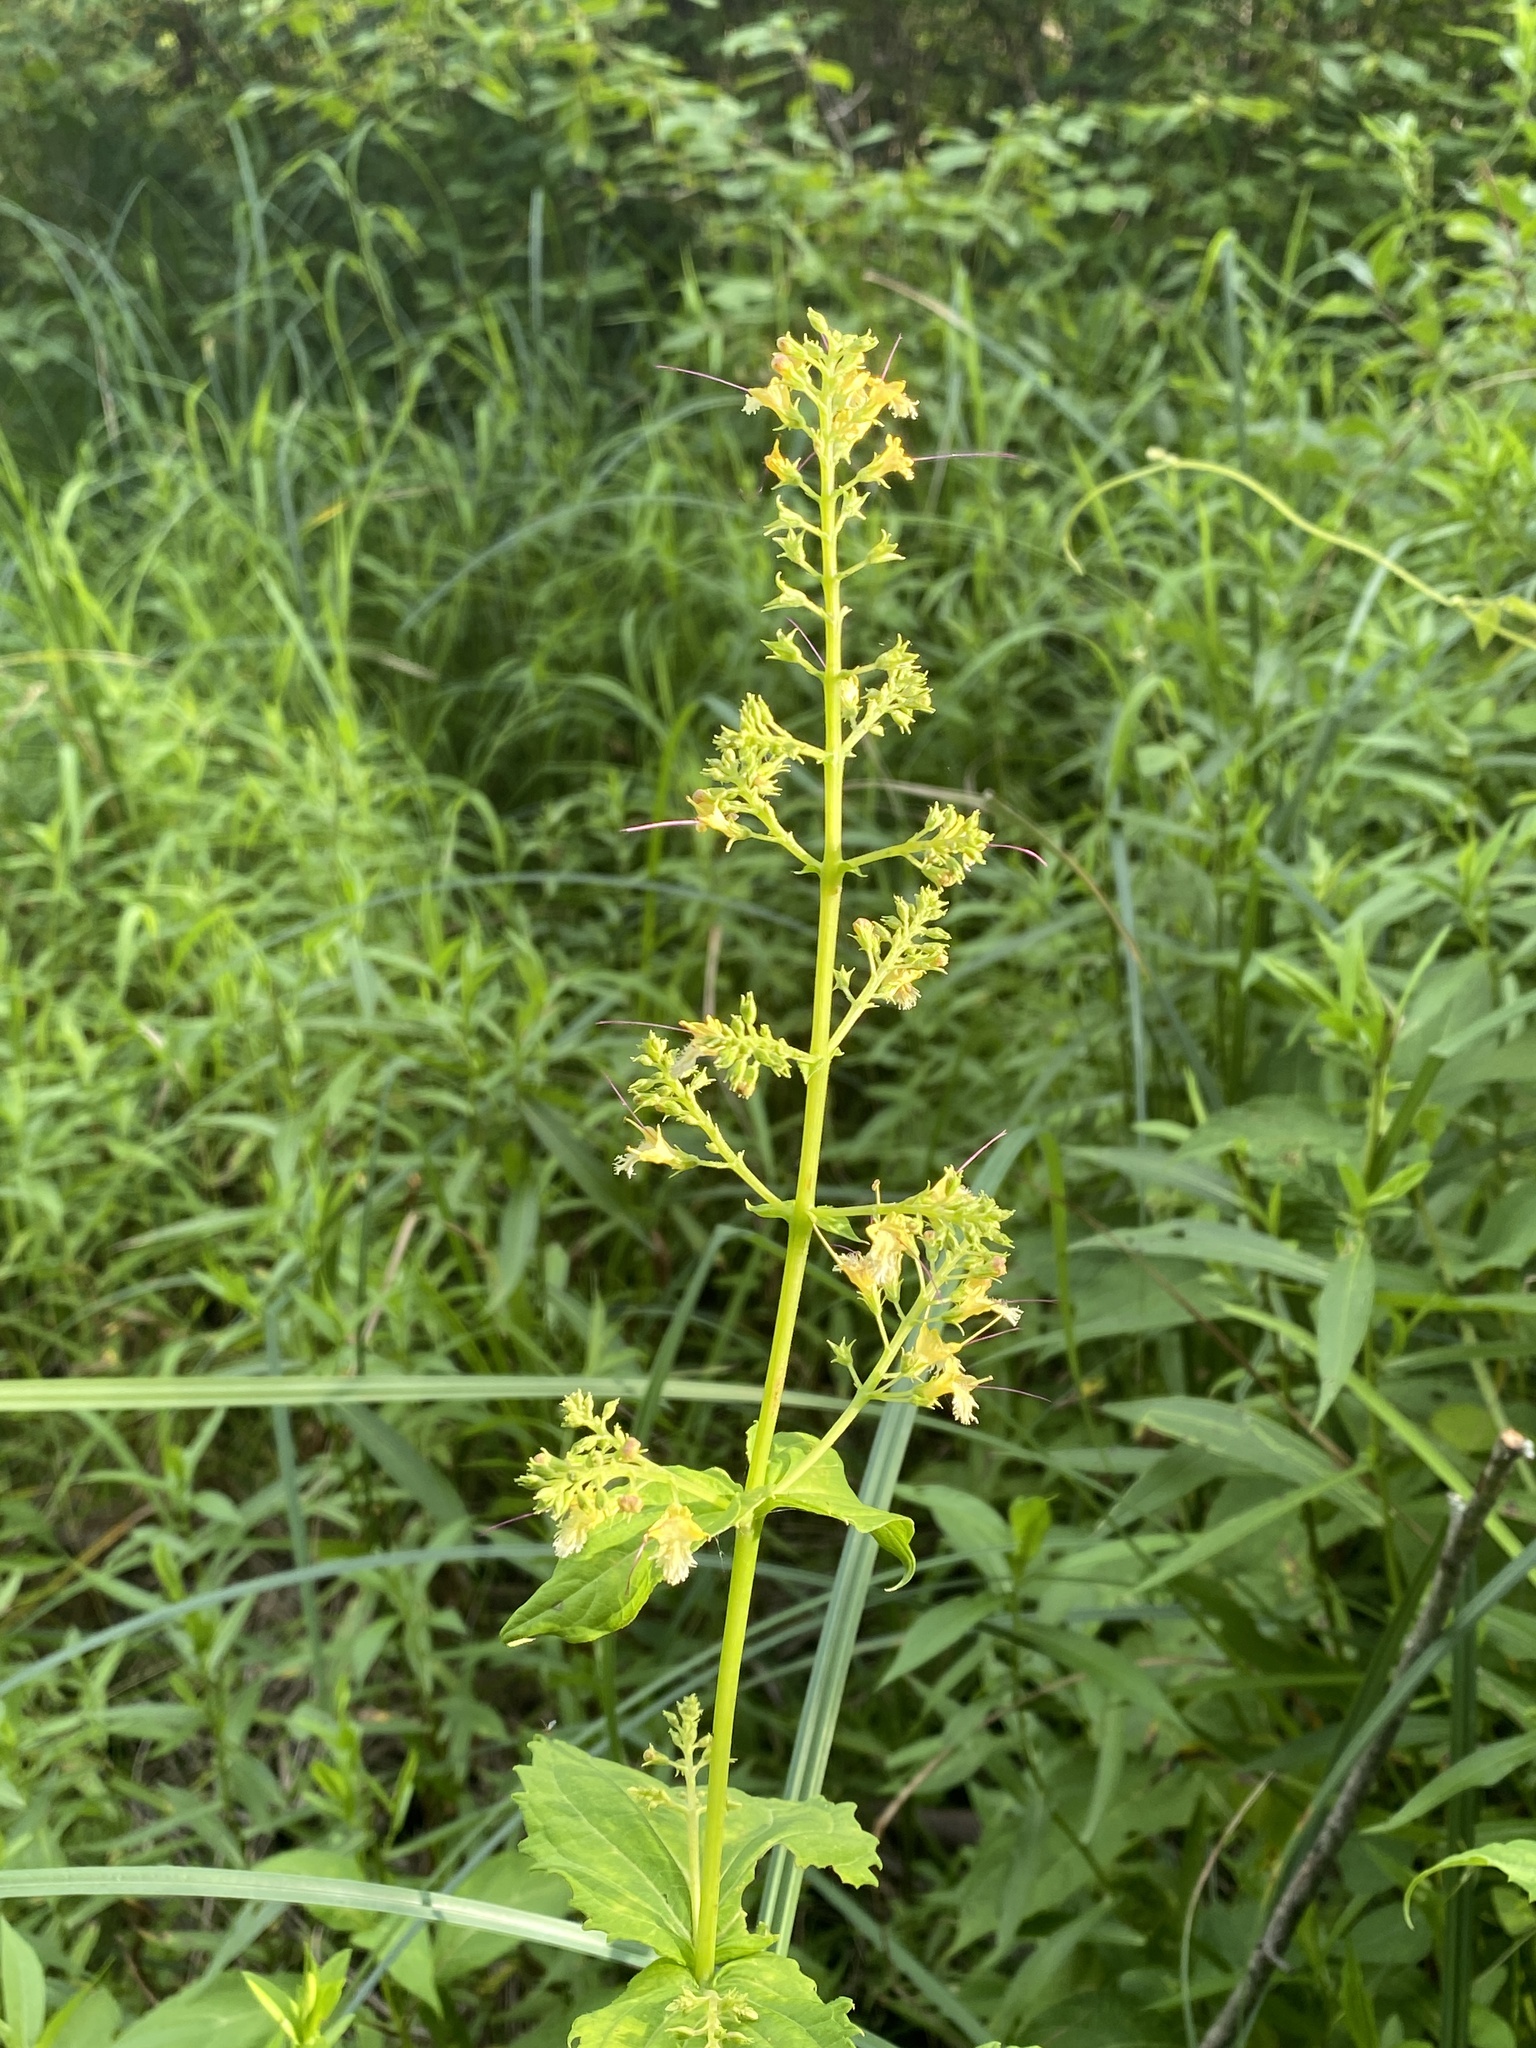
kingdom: Plantae
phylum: Tracheophyta
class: Magnoliopsida
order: Lamiales
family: Lamiaceae
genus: Collinsonia
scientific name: Collinsonia canadensis
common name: Northern horsebalm
